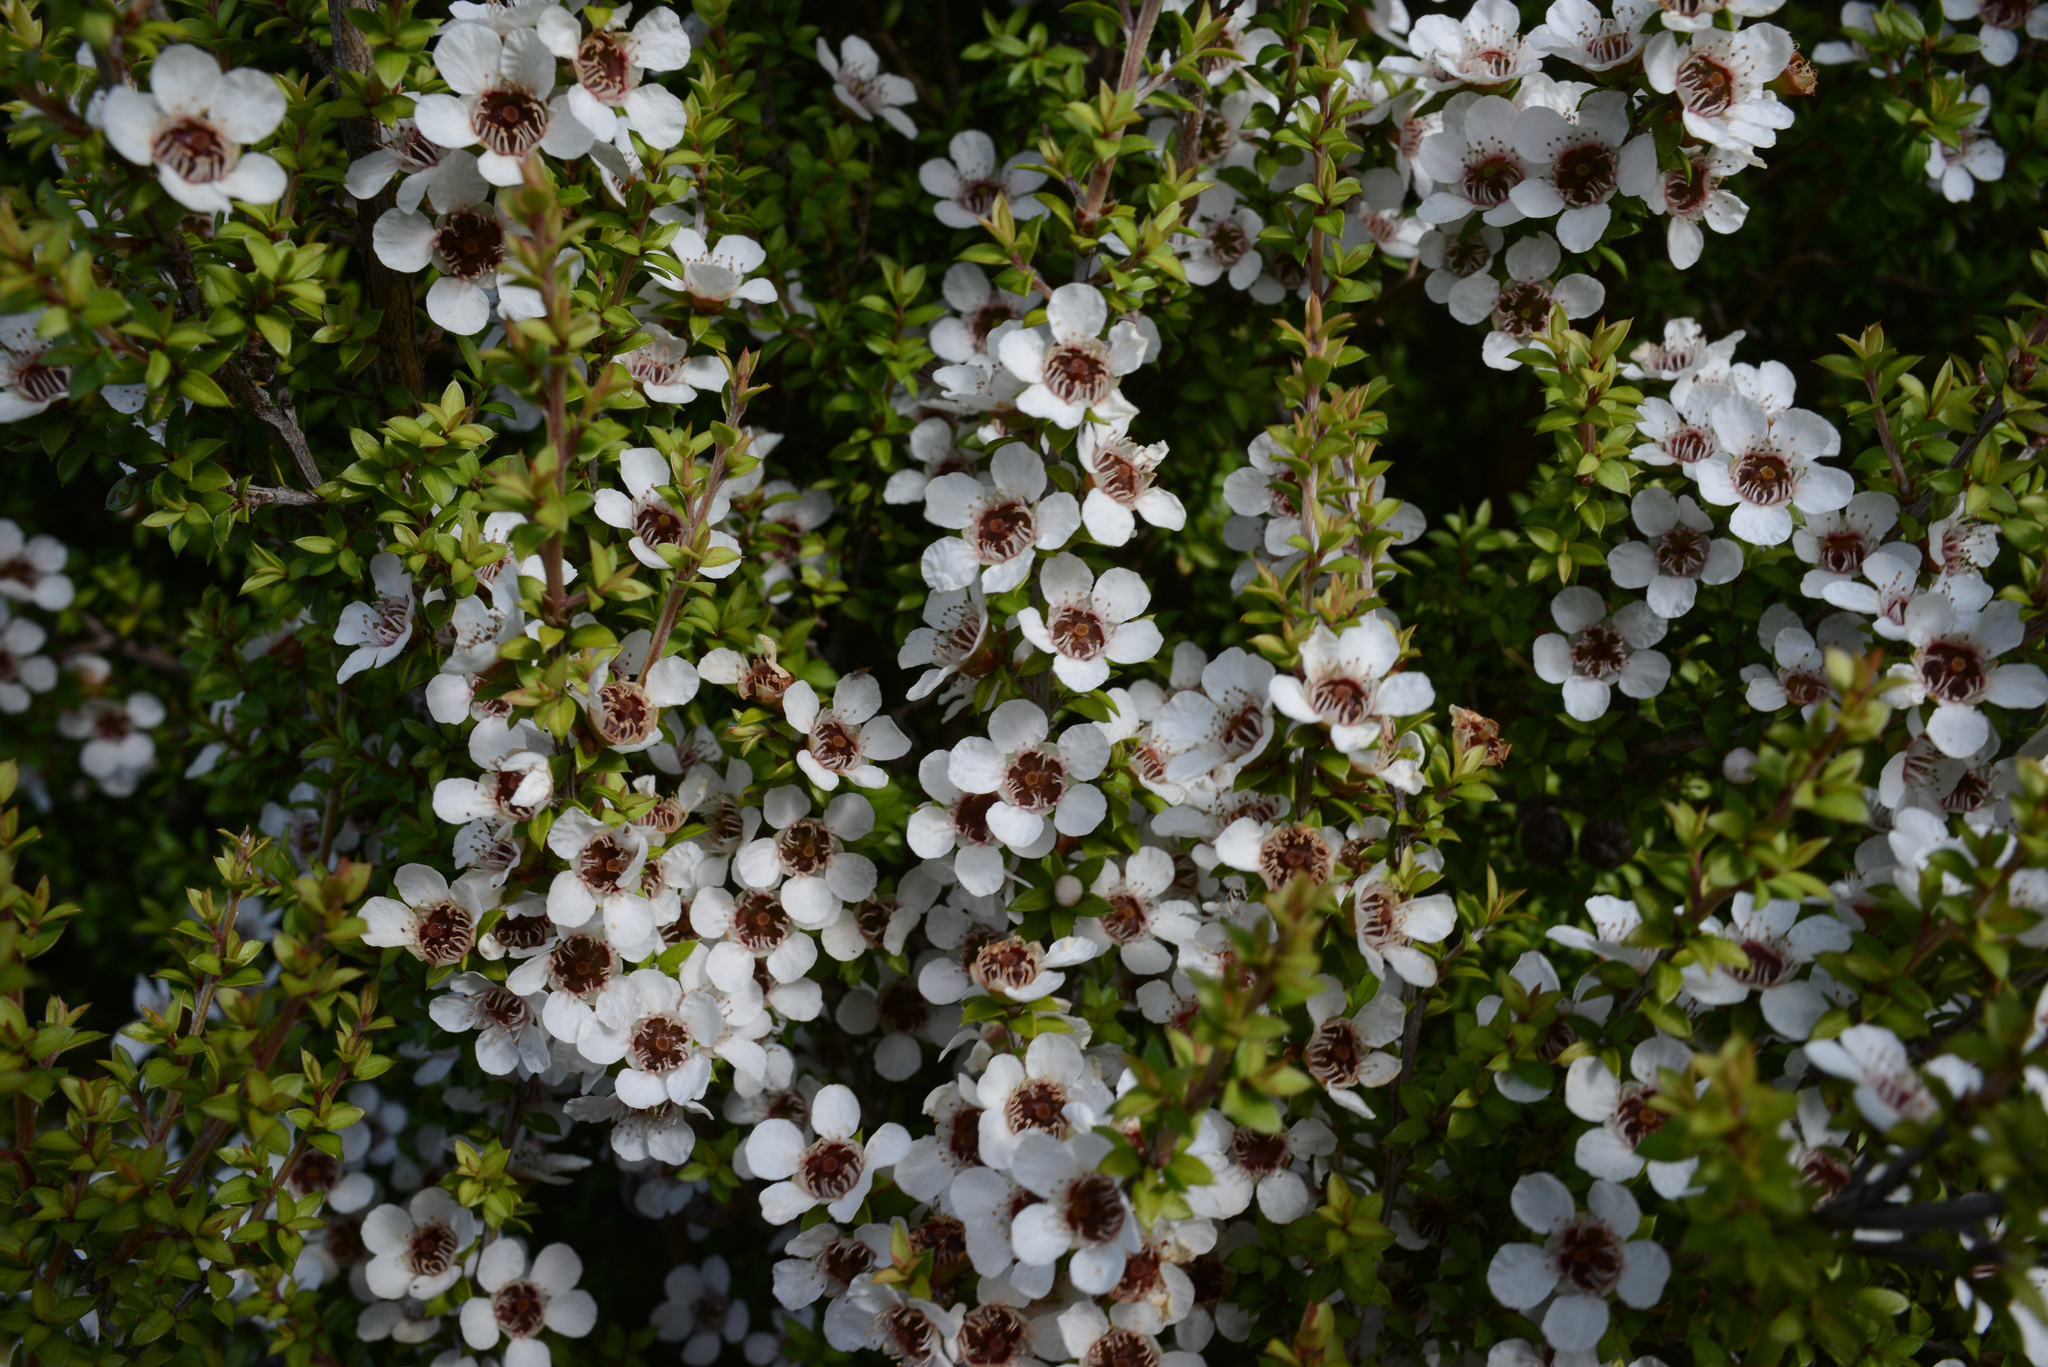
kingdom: Plantae
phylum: Tracheophyta
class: Magnoliopsida
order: Myrtales
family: Myrtaceae
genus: Leptospermum
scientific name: Leptospermum scoparium
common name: Broom tea-tree
